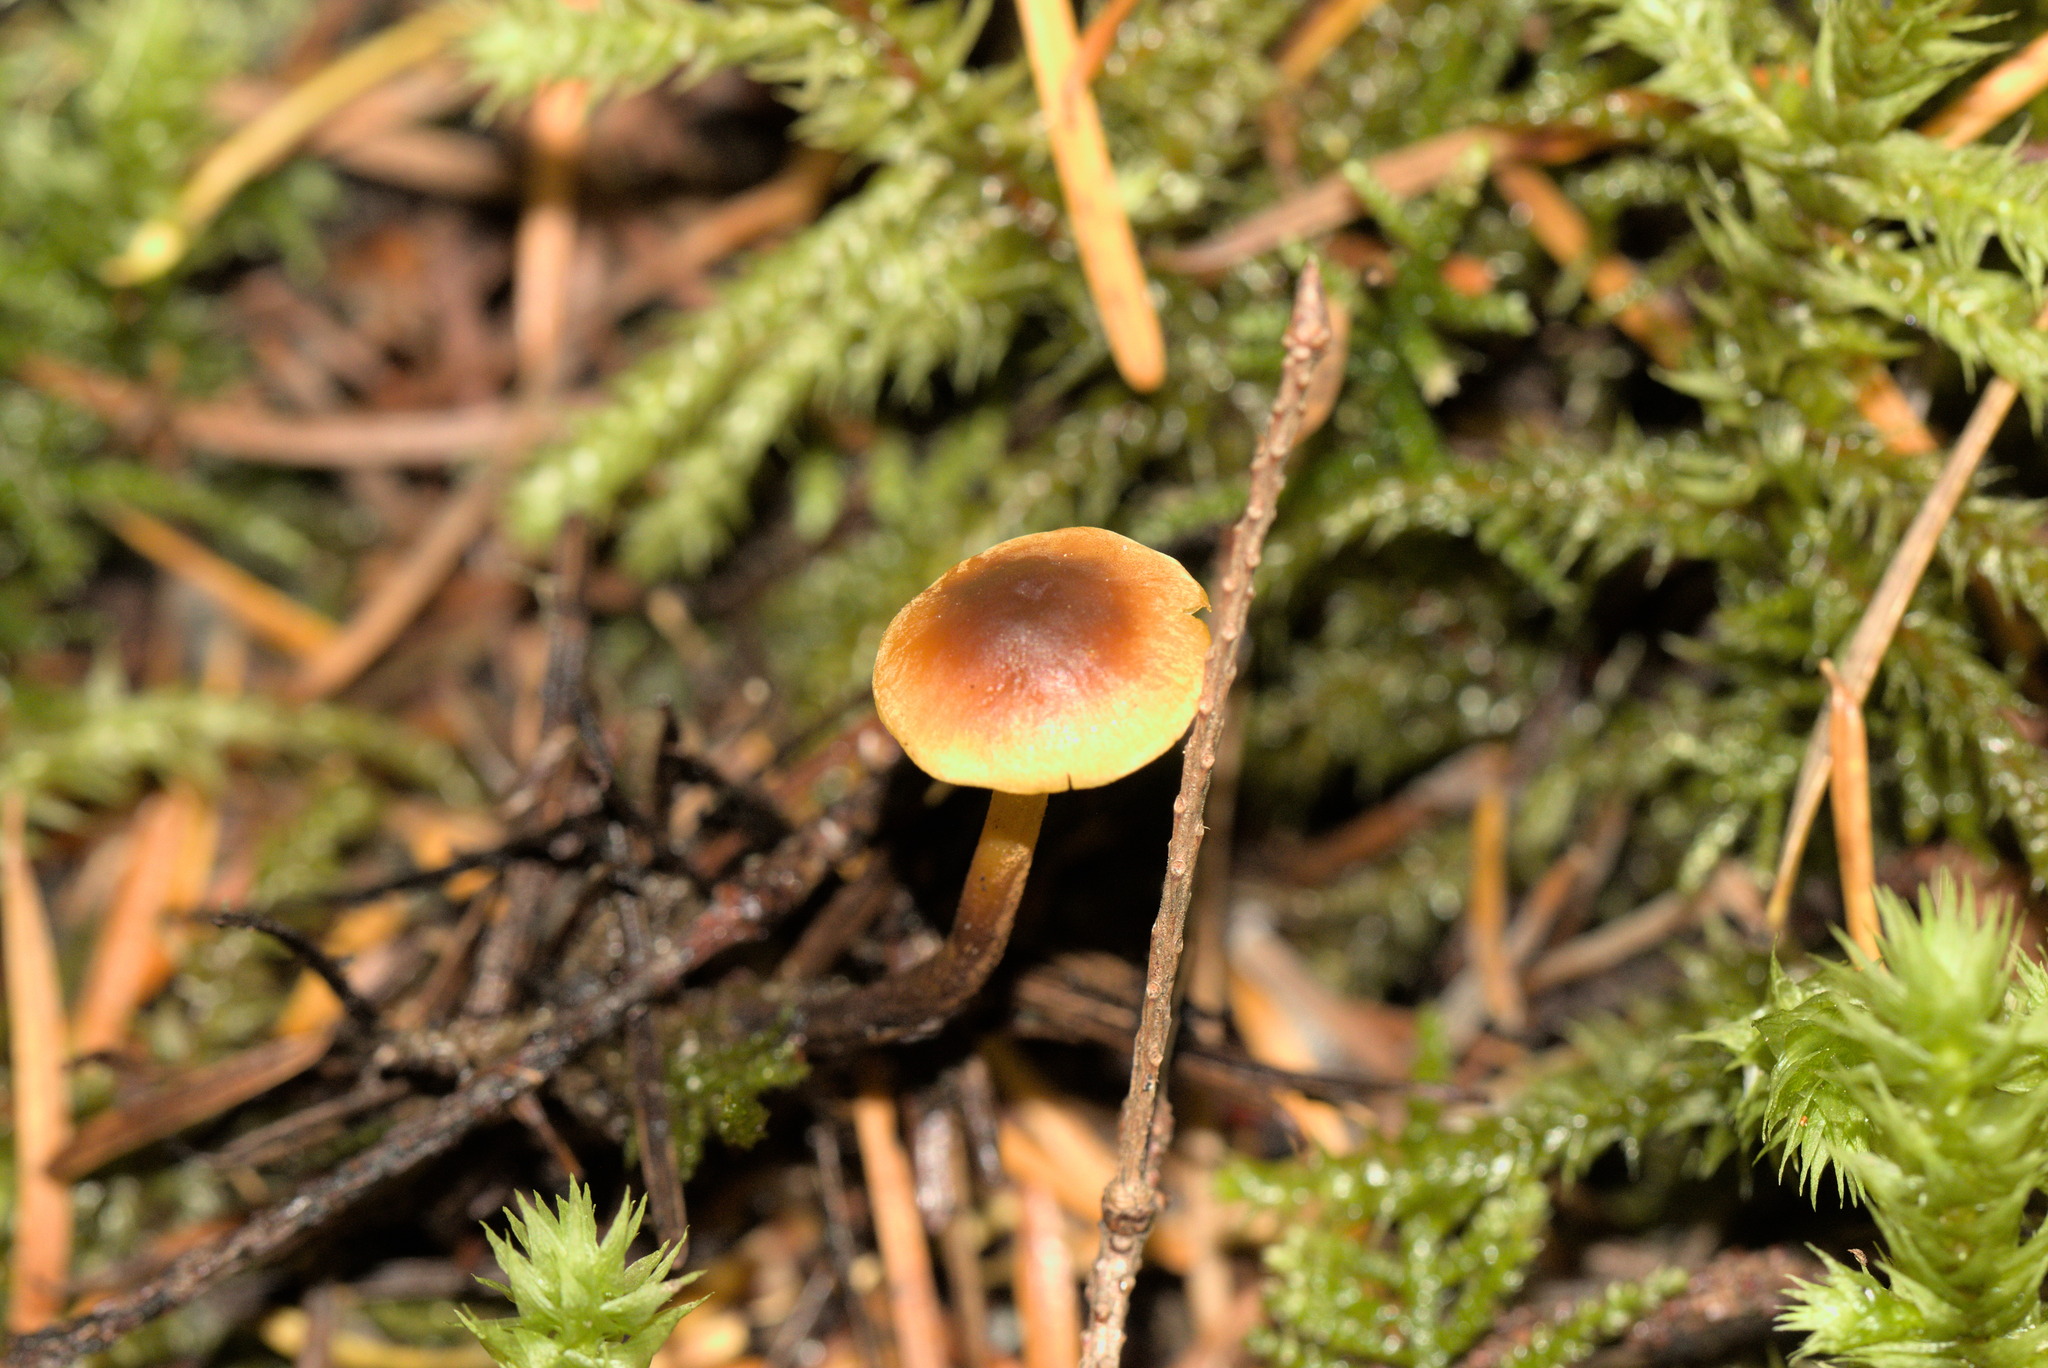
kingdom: Fungi
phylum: Basidiomycota
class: Agaricomycetes
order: Agaricales
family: Mycenaceae
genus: Xeromphalina
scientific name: Xeromphalina fulvipes
